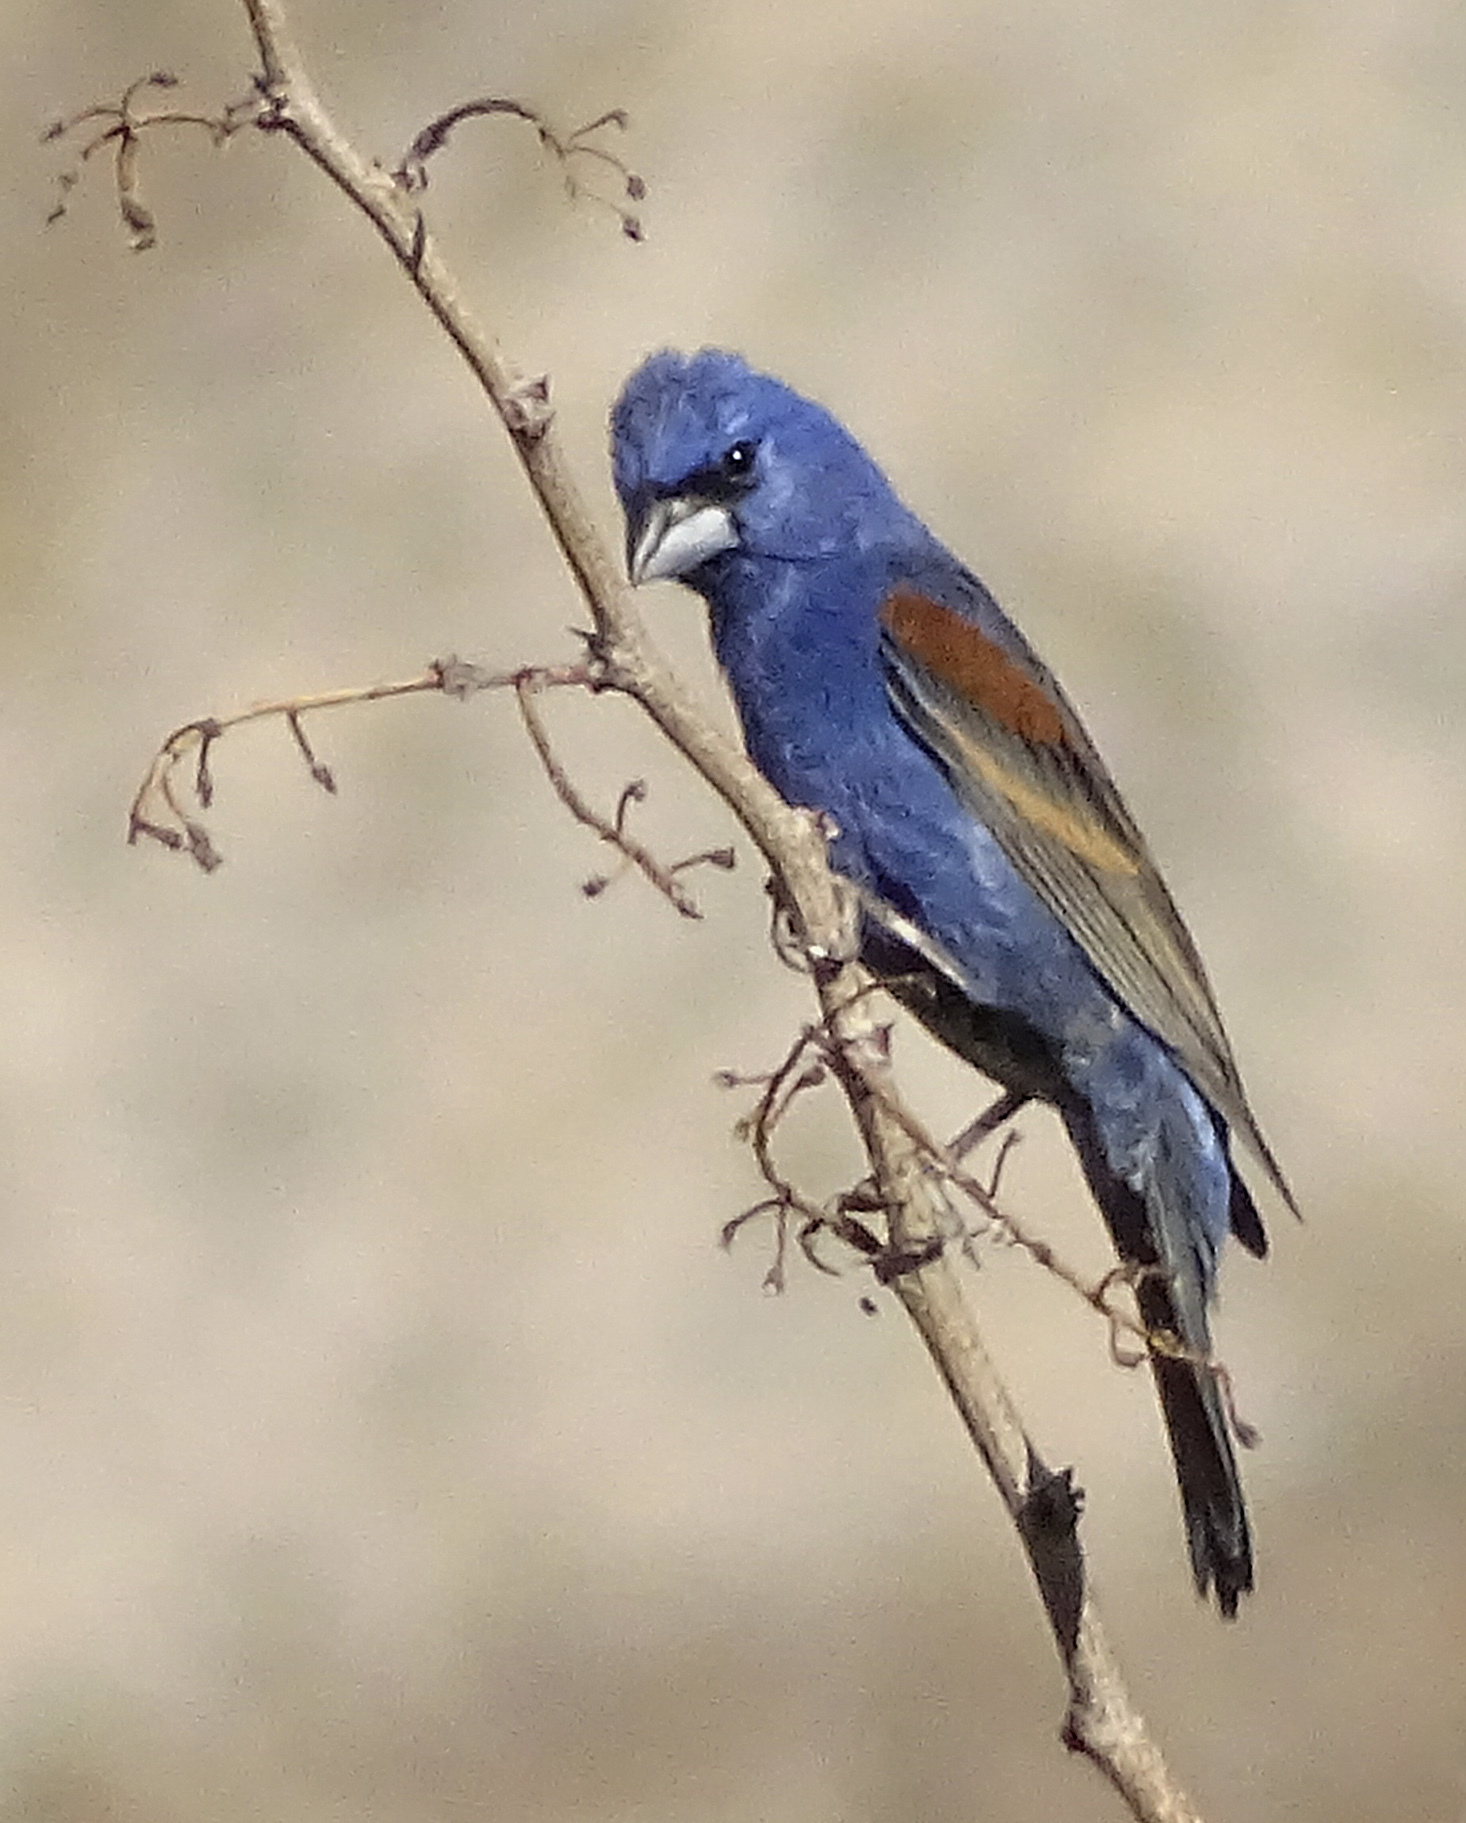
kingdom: Animalia
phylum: Chordata
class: Aves
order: Passeriformes
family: Cardinalidae
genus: Passerina
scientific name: Passerina caerulea
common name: Blue grosbeak
